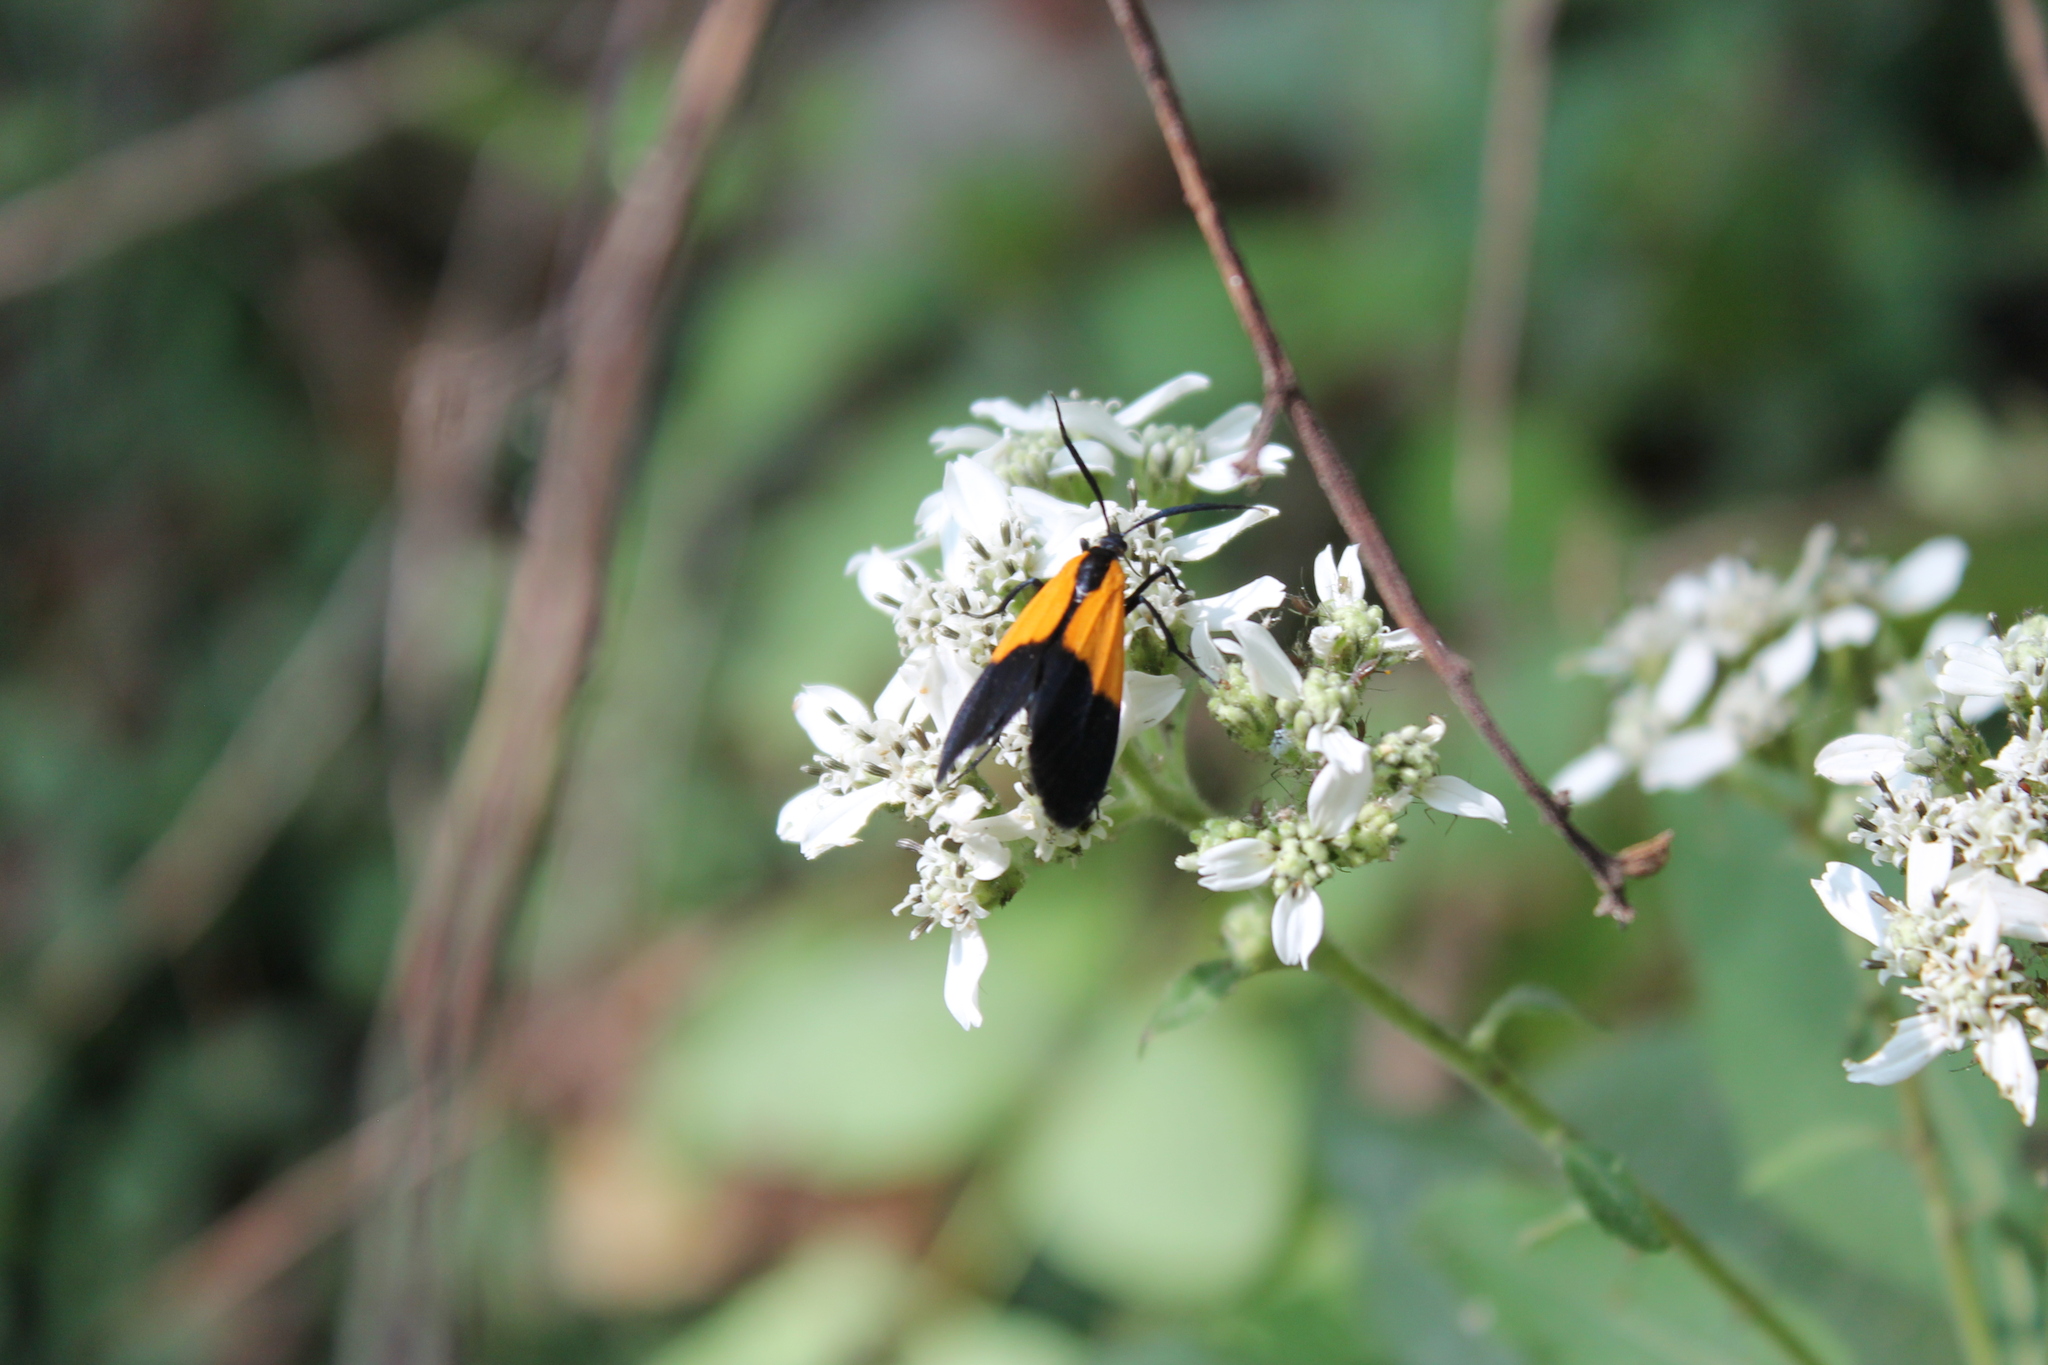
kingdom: Animalia
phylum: Arthropoda
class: Insecta
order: Lepidoptera
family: Erebidae
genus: Lycomorpha
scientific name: Lycomorpha pholus
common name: Black-and-yellow lichen moth
